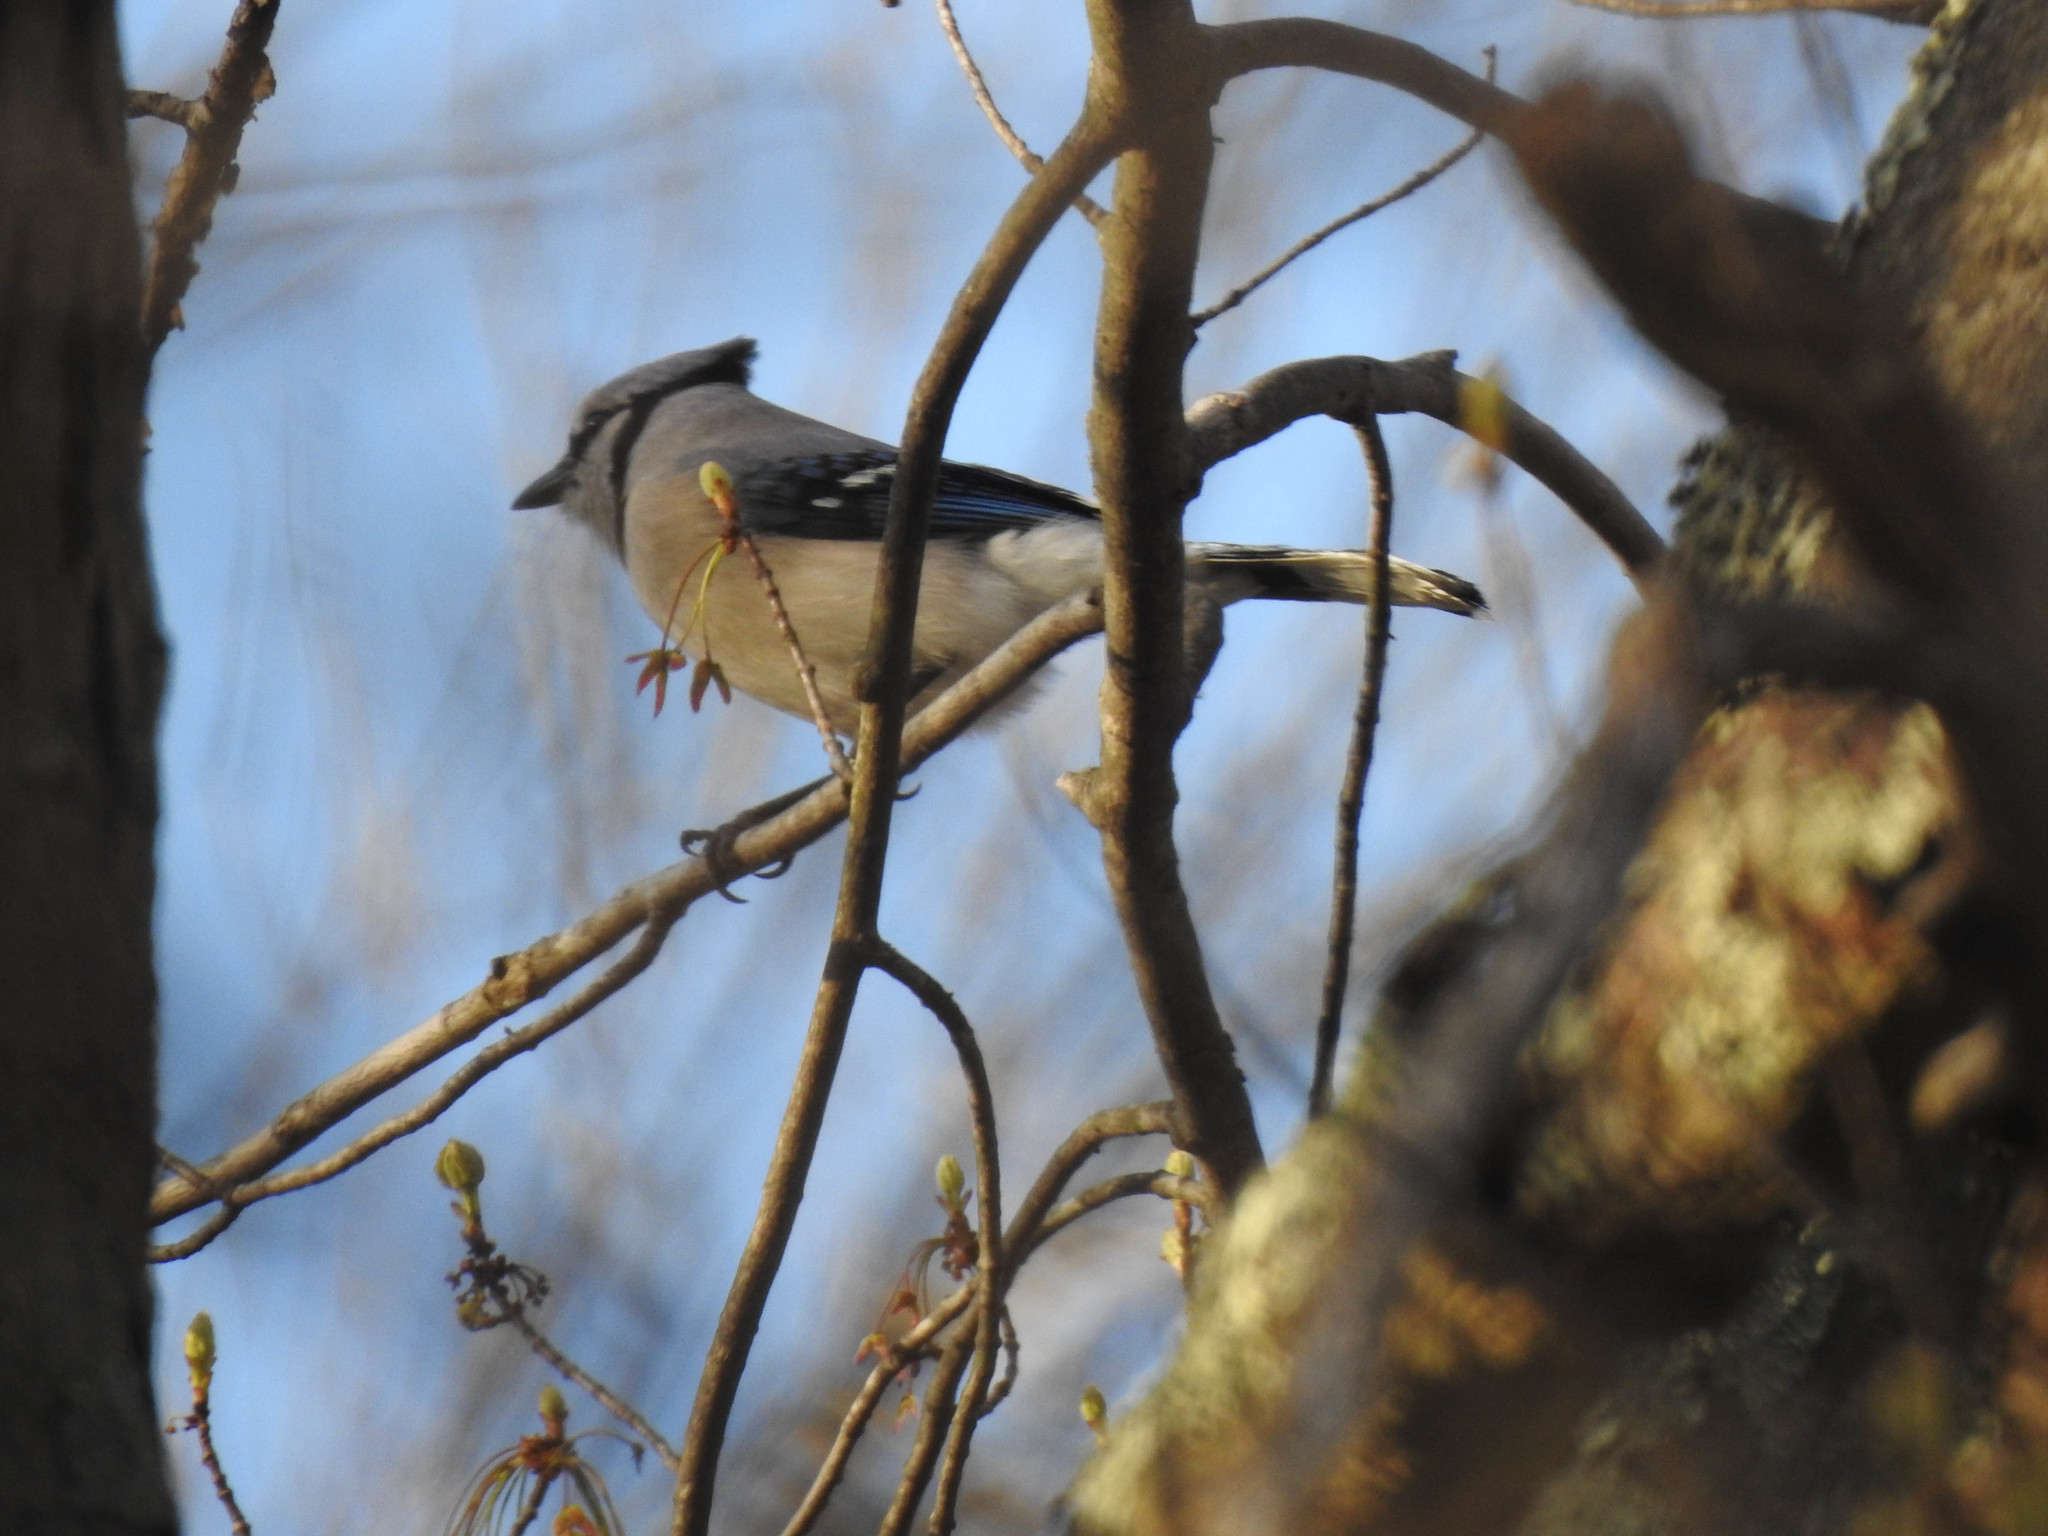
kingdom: Animalia
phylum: Chordata
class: Aves
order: Passeriformes
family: Corvidae
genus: Cyanocitta
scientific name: Cyanocitta cristata
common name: Blue jay
